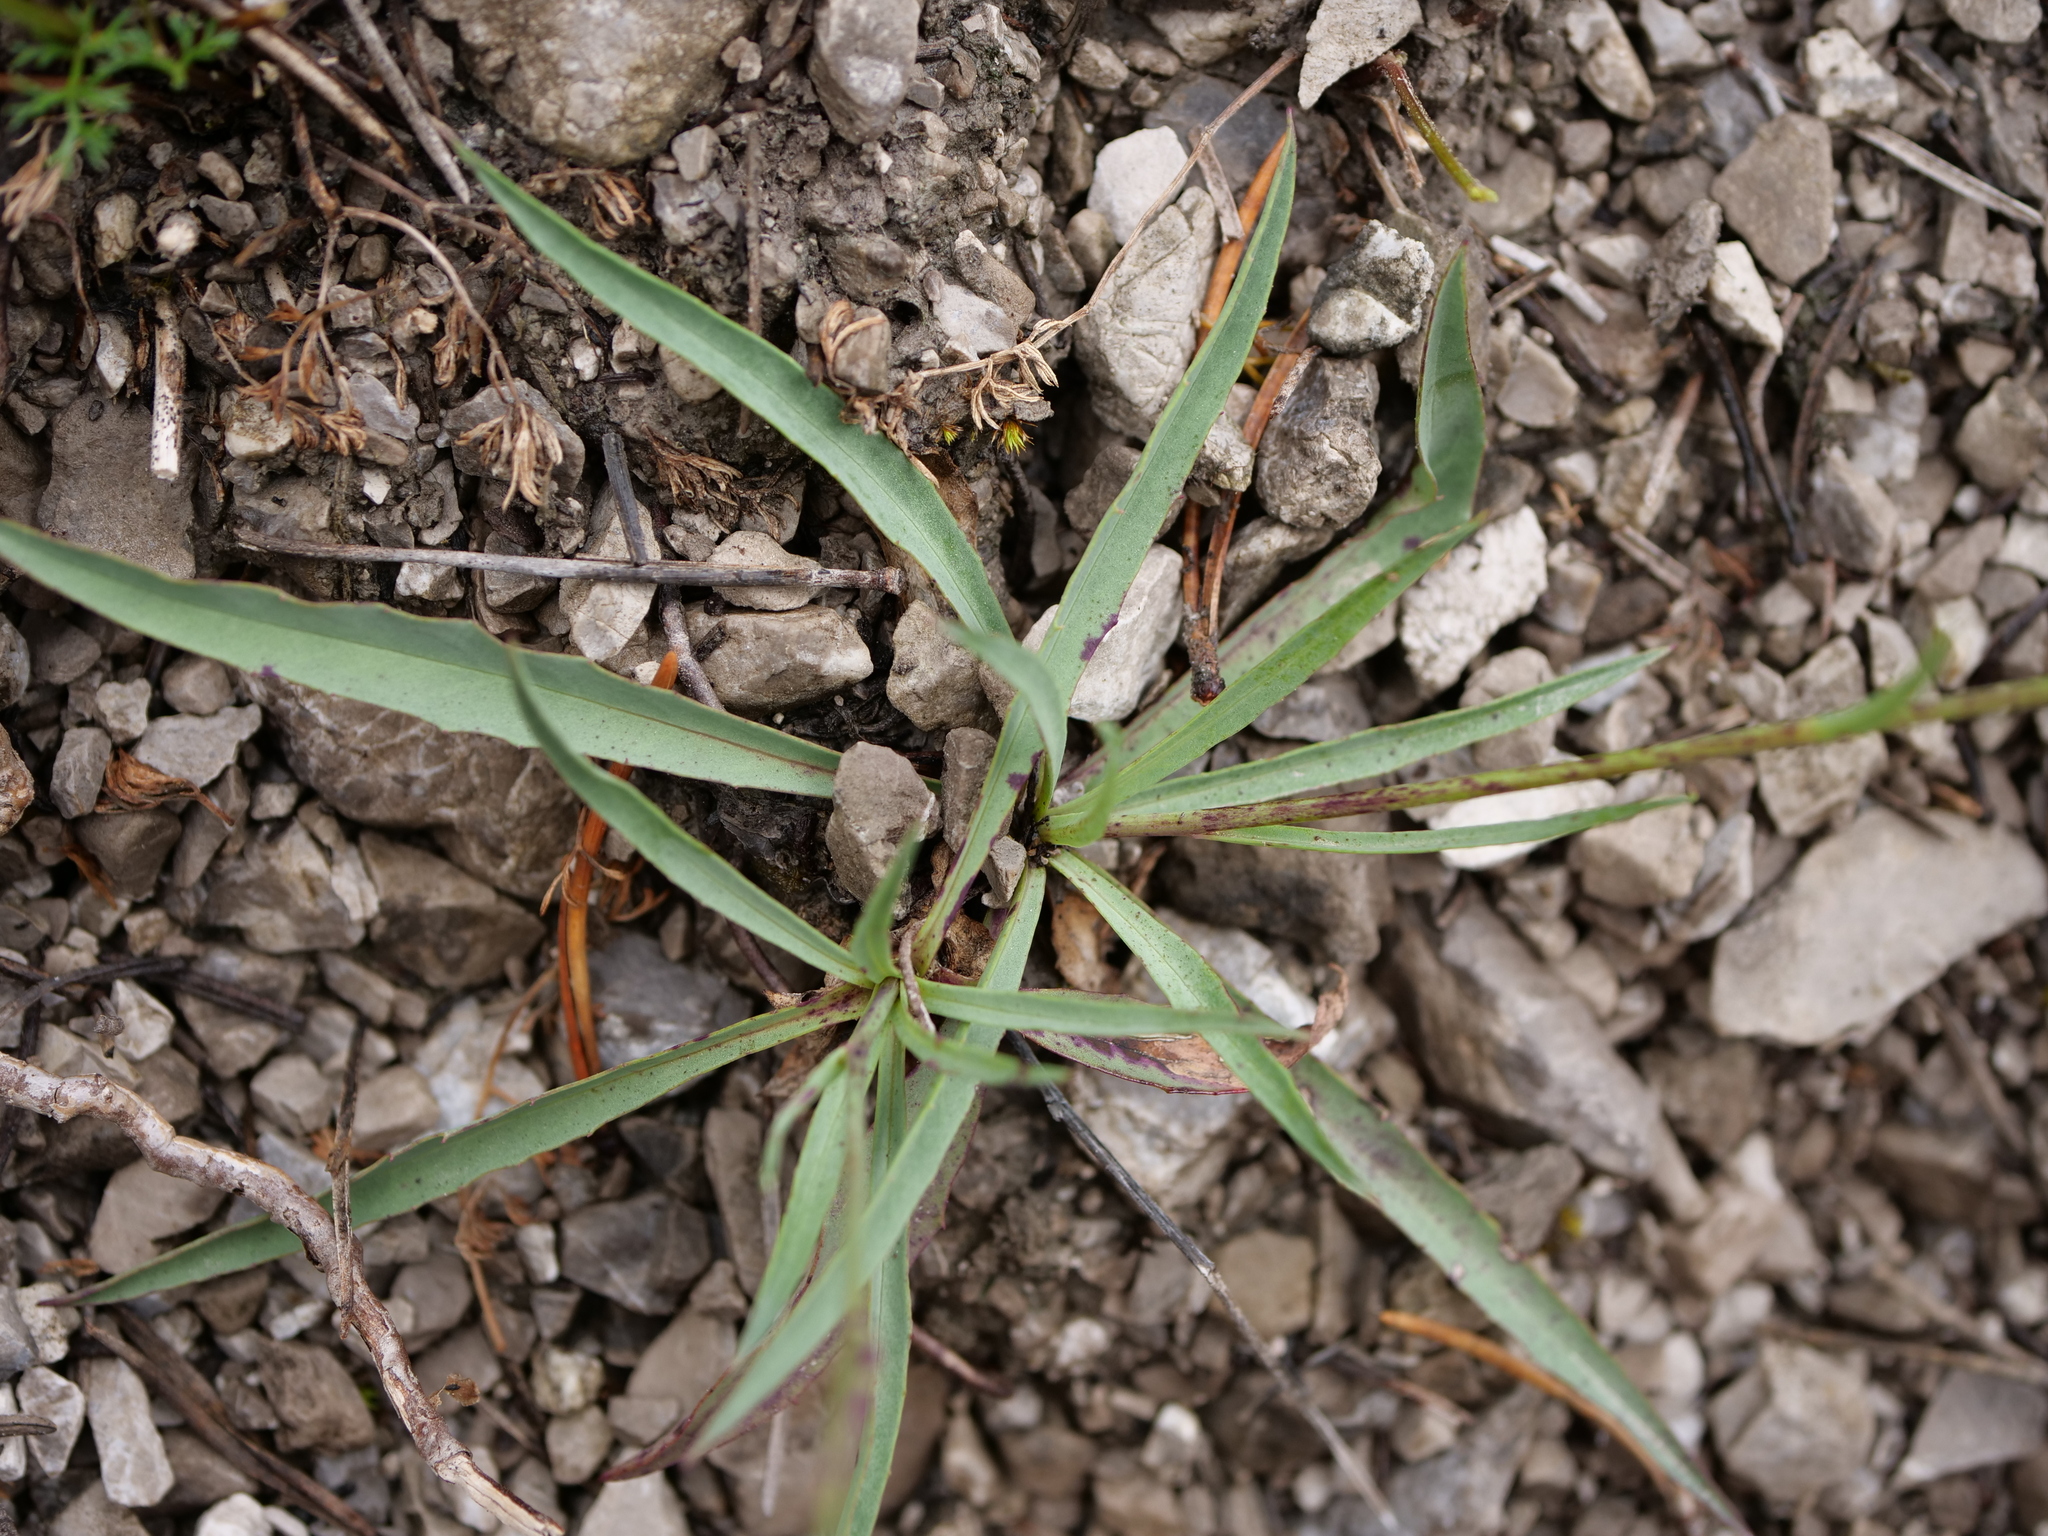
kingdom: Plantae
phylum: Tracheophyta
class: Magnoliopsida
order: Asterales
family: Asteraceae
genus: Tolpis
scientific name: Tolpis staticifolia
